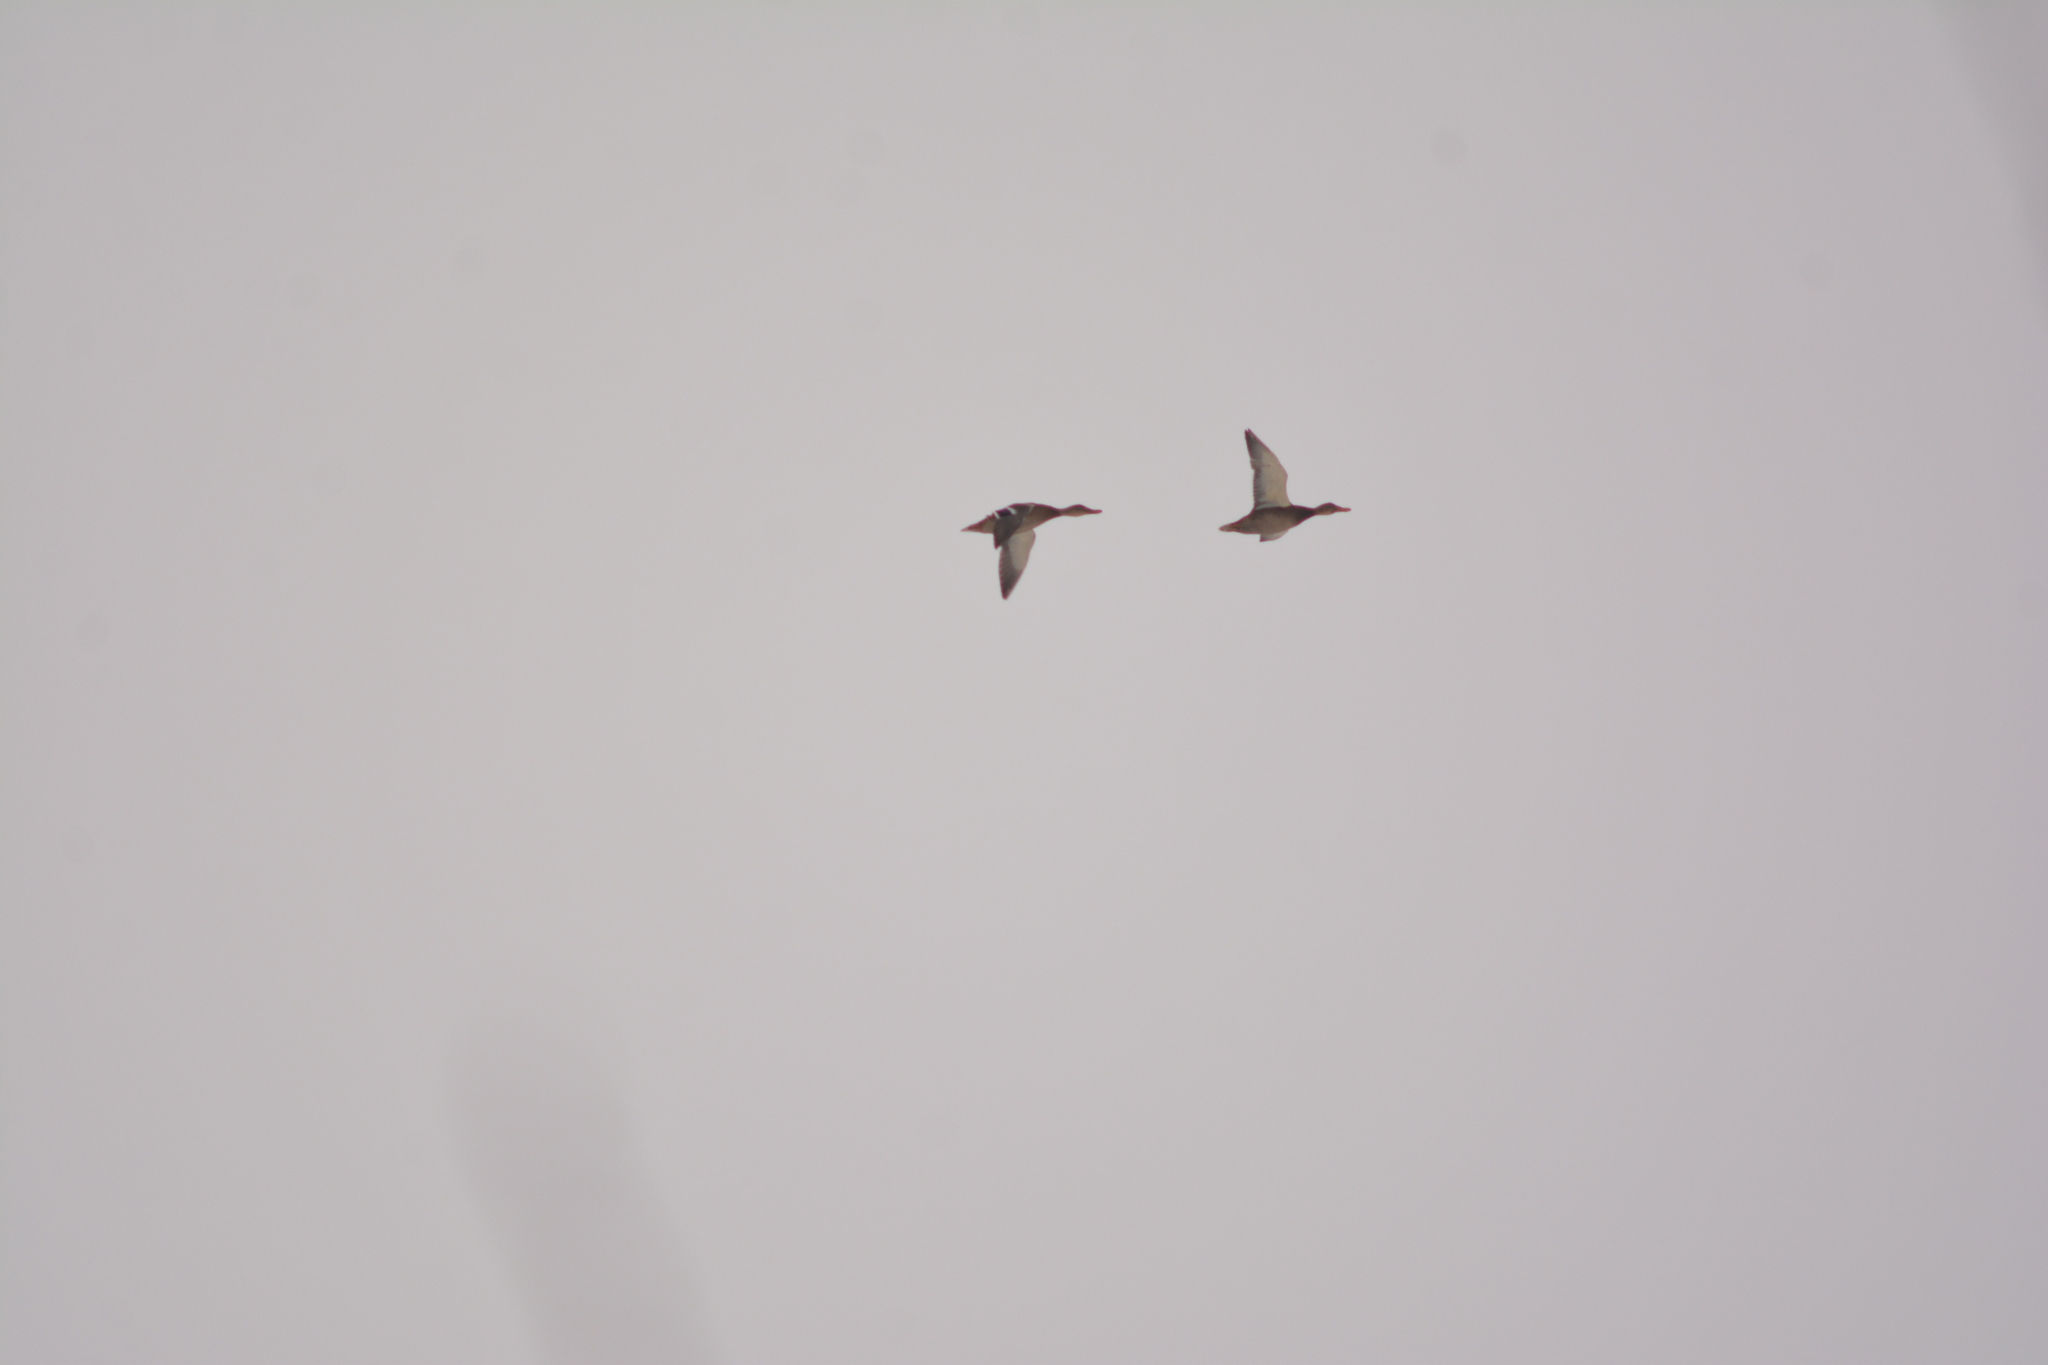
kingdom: Animalia
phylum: Chordata
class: Aves
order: Anseriformes
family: Anatidae
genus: Anas
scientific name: Anas platyrhynchos
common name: Mallard
